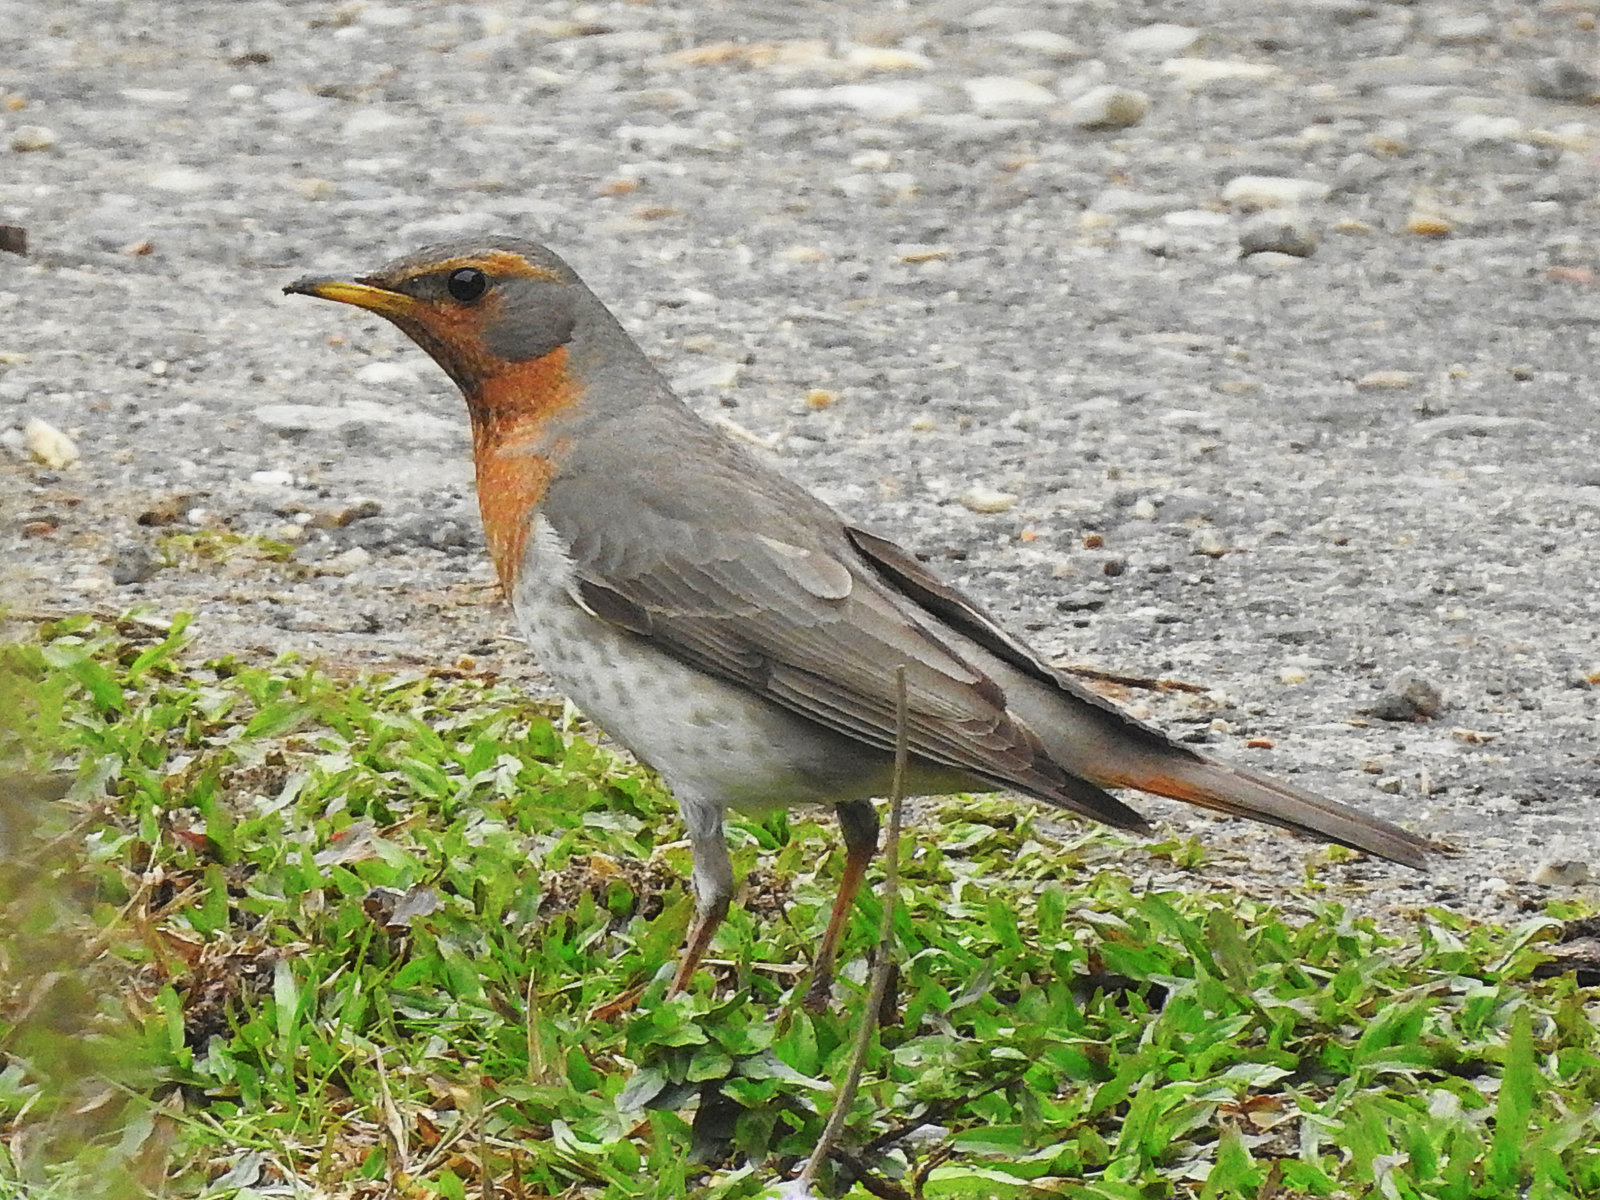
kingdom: Animalia
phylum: Chordata
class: Aves
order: Passeriformes
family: Turdidae
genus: Turdus
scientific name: Turdus ruficollis
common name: Red-throated thrush
